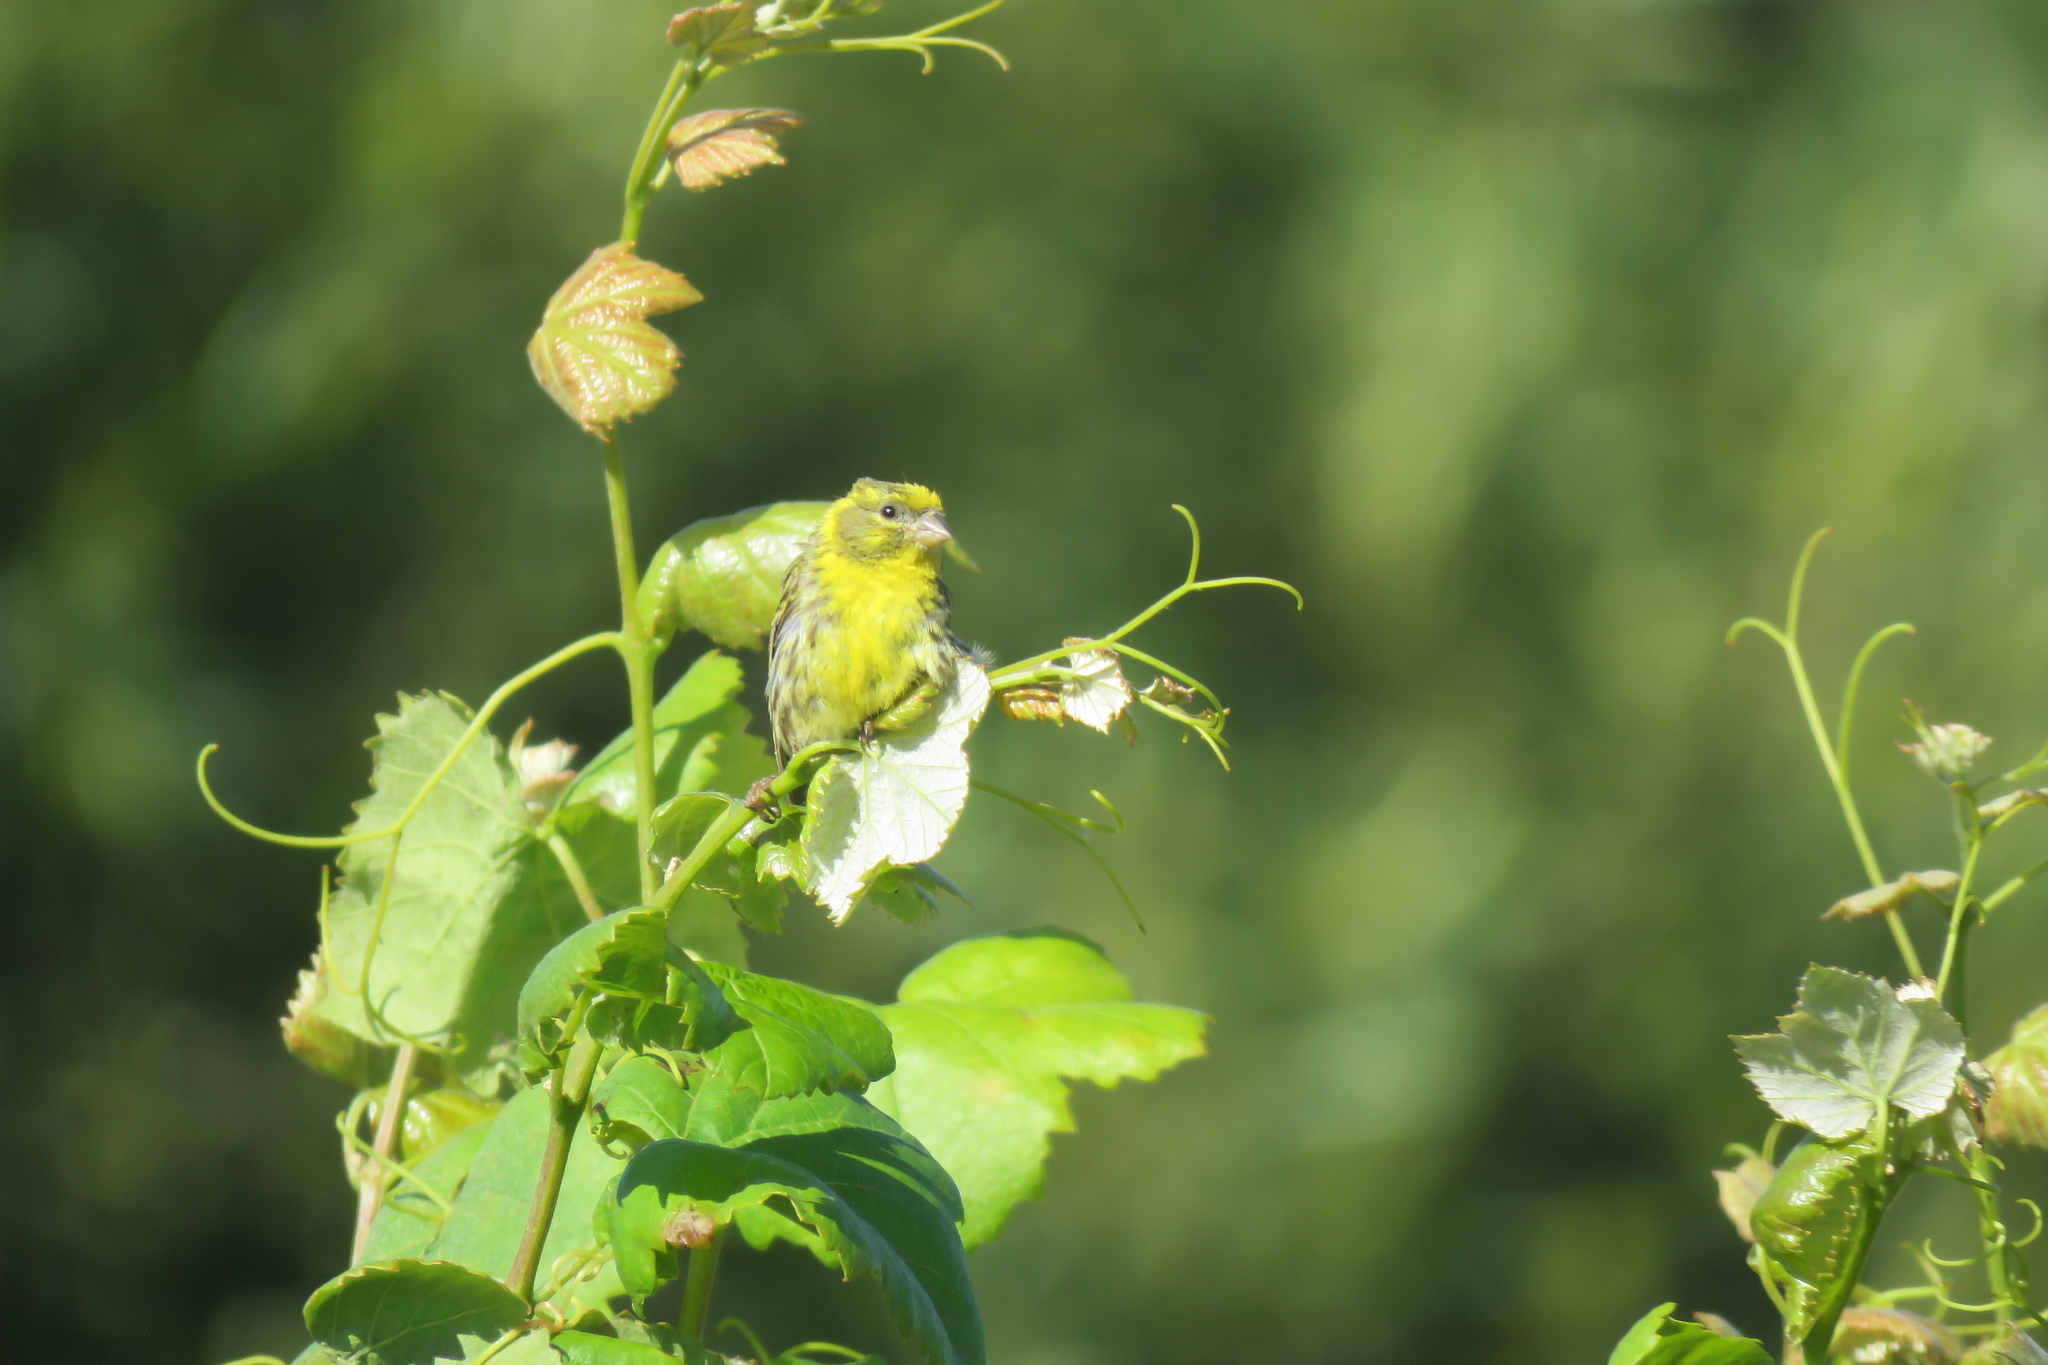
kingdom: Animalia
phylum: Chordata
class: Aves
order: Passeriformes
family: Fringillidae
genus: Serinus
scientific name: Serinus serinus
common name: European serin
